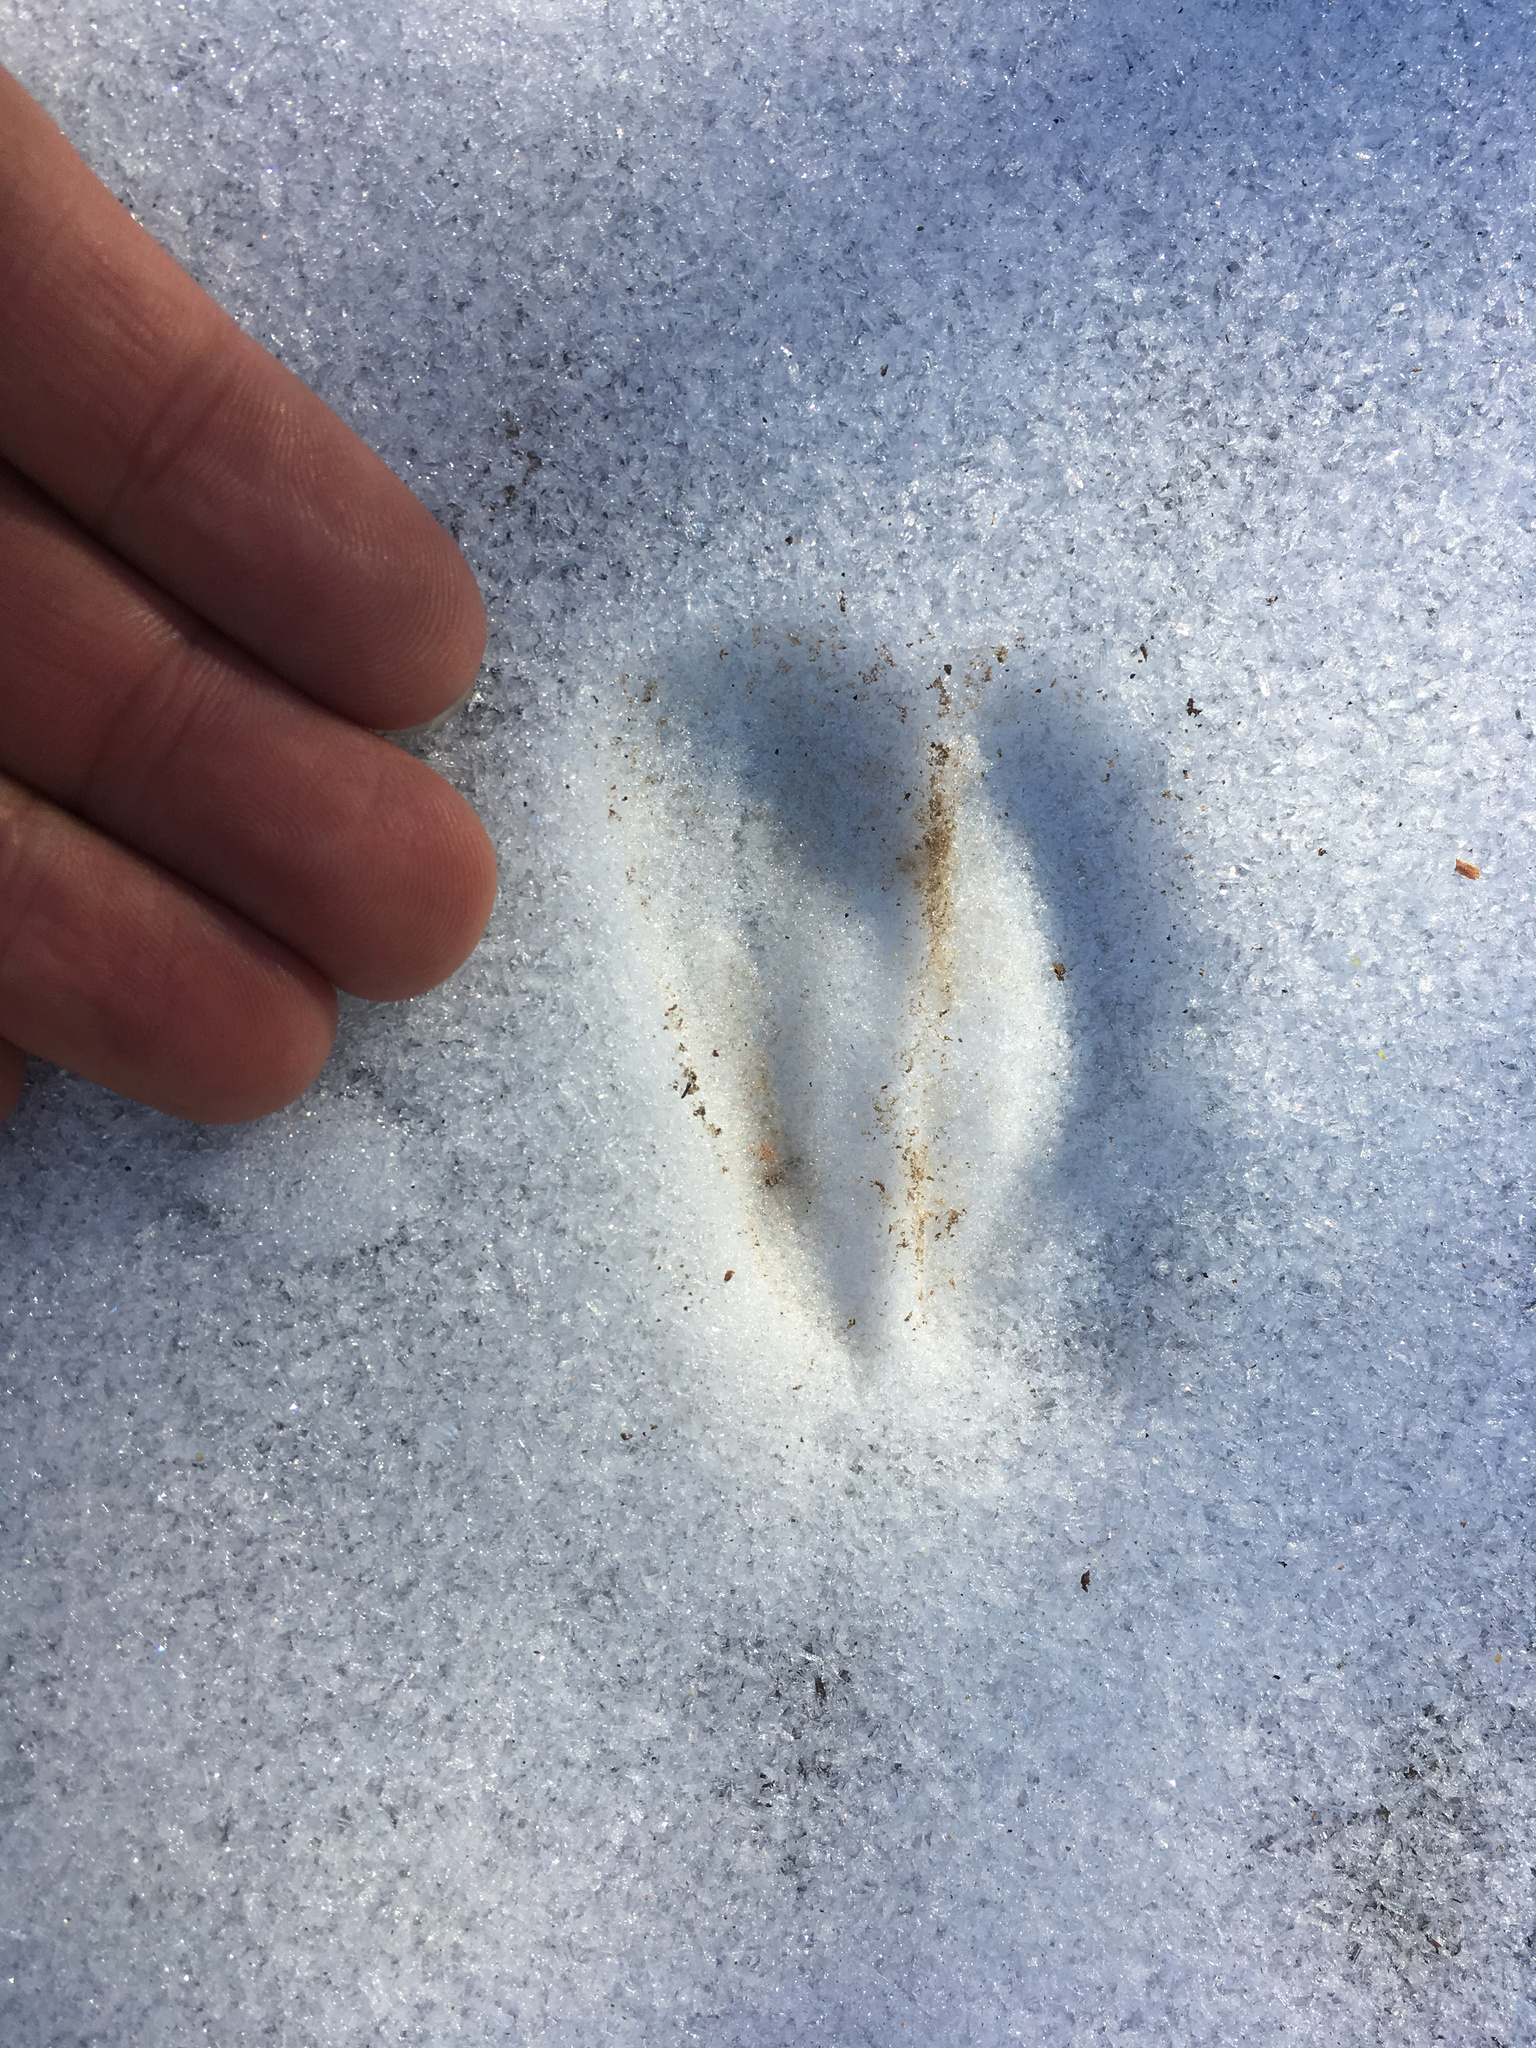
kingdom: Animalia
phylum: Chordata
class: Mammalia
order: Artiodactyla
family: Cervidae
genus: Odocoileus
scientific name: Odocoileus hemionus
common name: Mule deer
